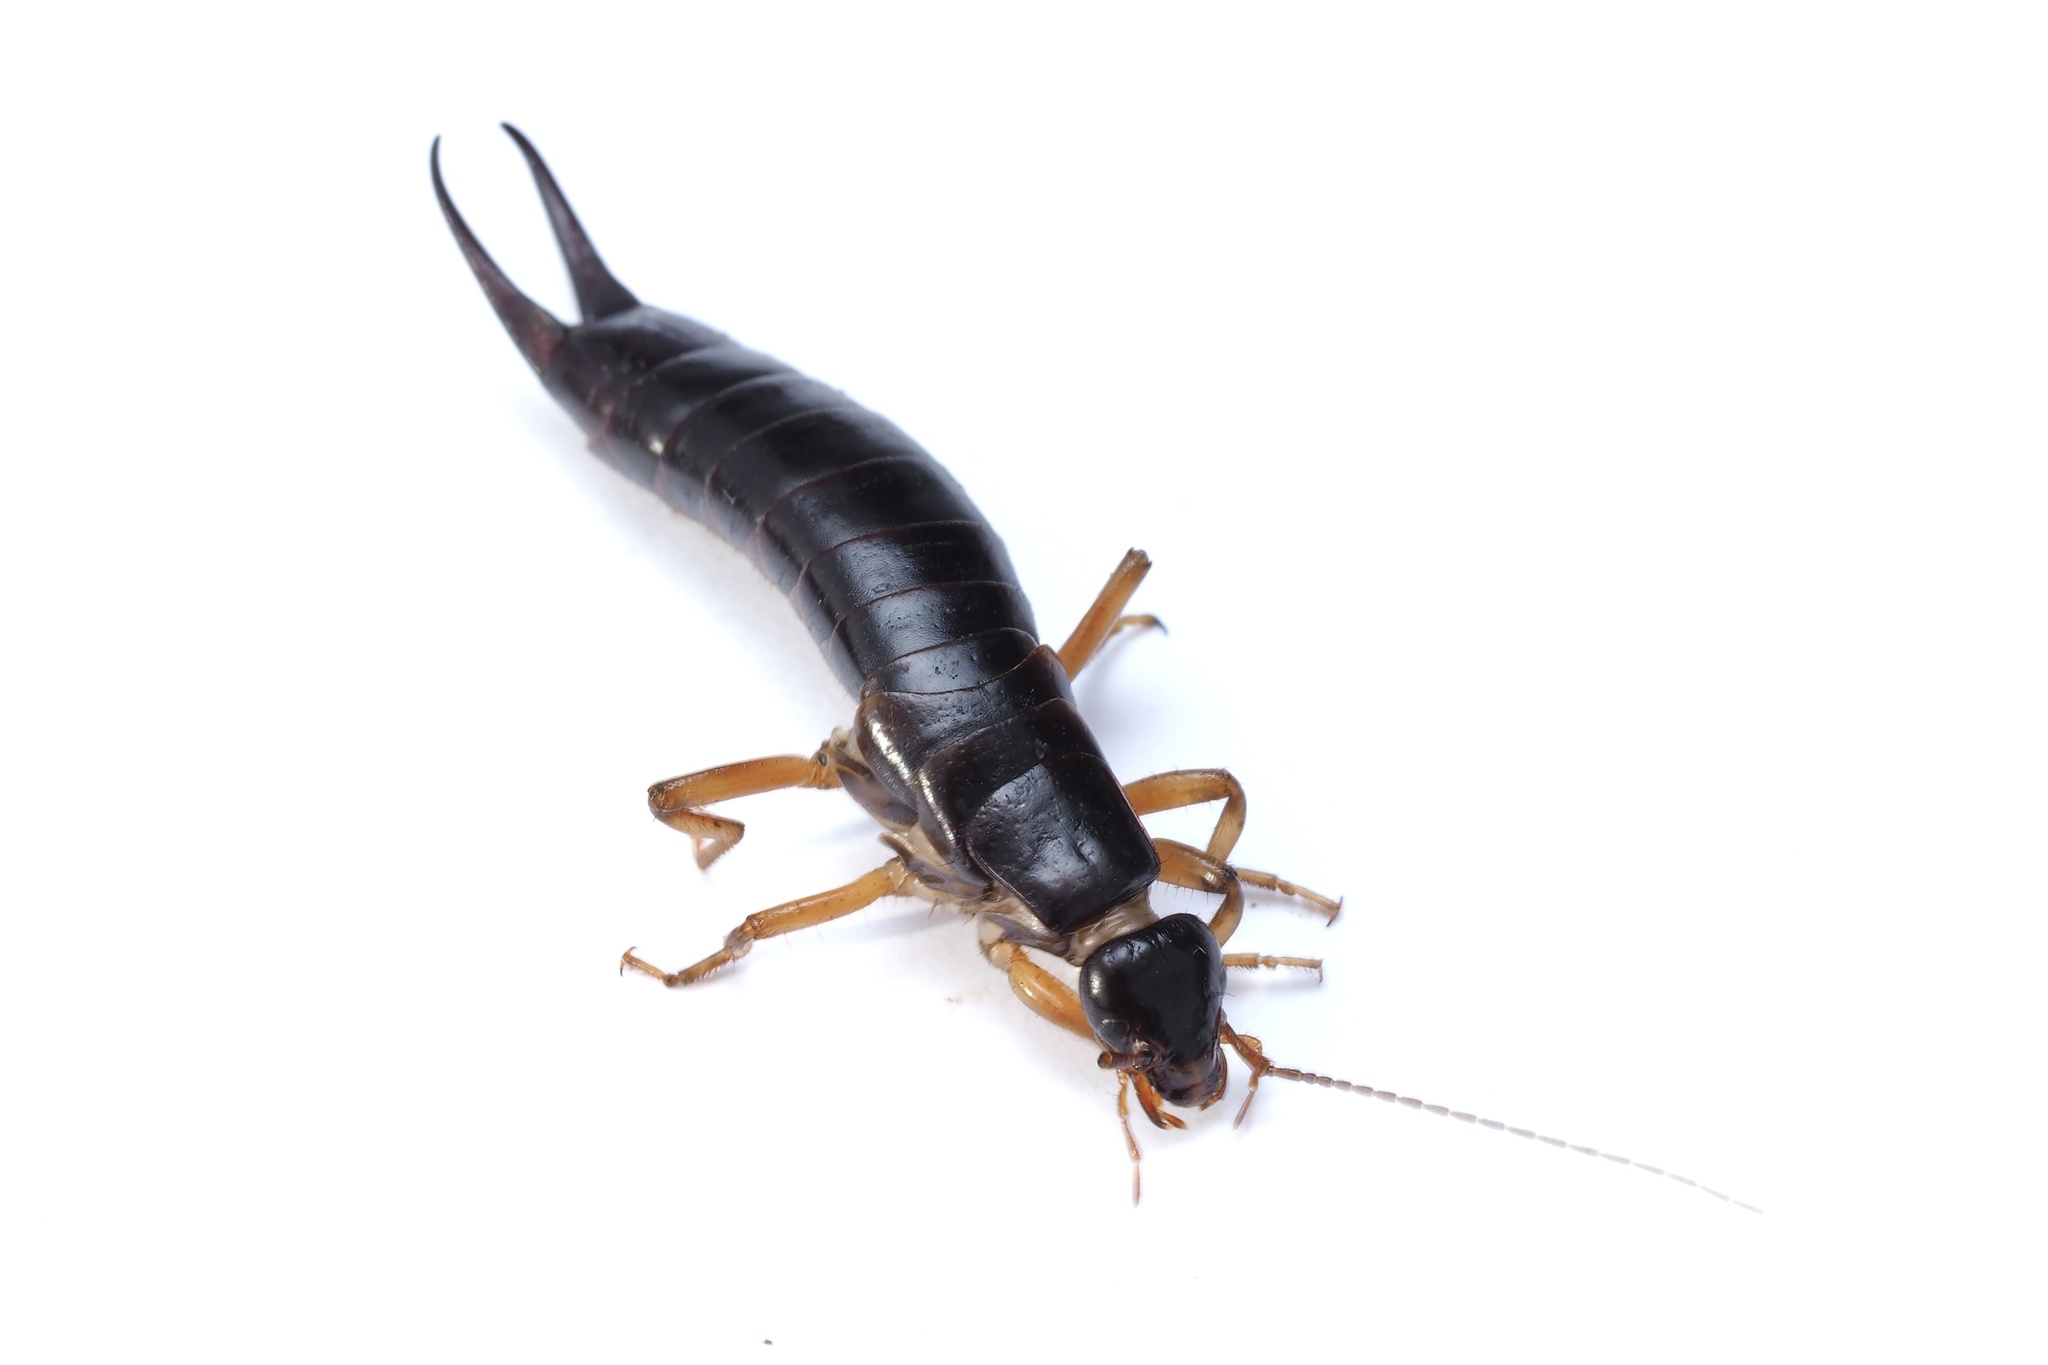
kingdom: Animalia
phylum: Arthropoda
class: Insecta
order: Dermaptera
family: Anisolabididae
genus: Anisolabis
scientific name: Anisolabis maritima
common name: Maritime earwig
